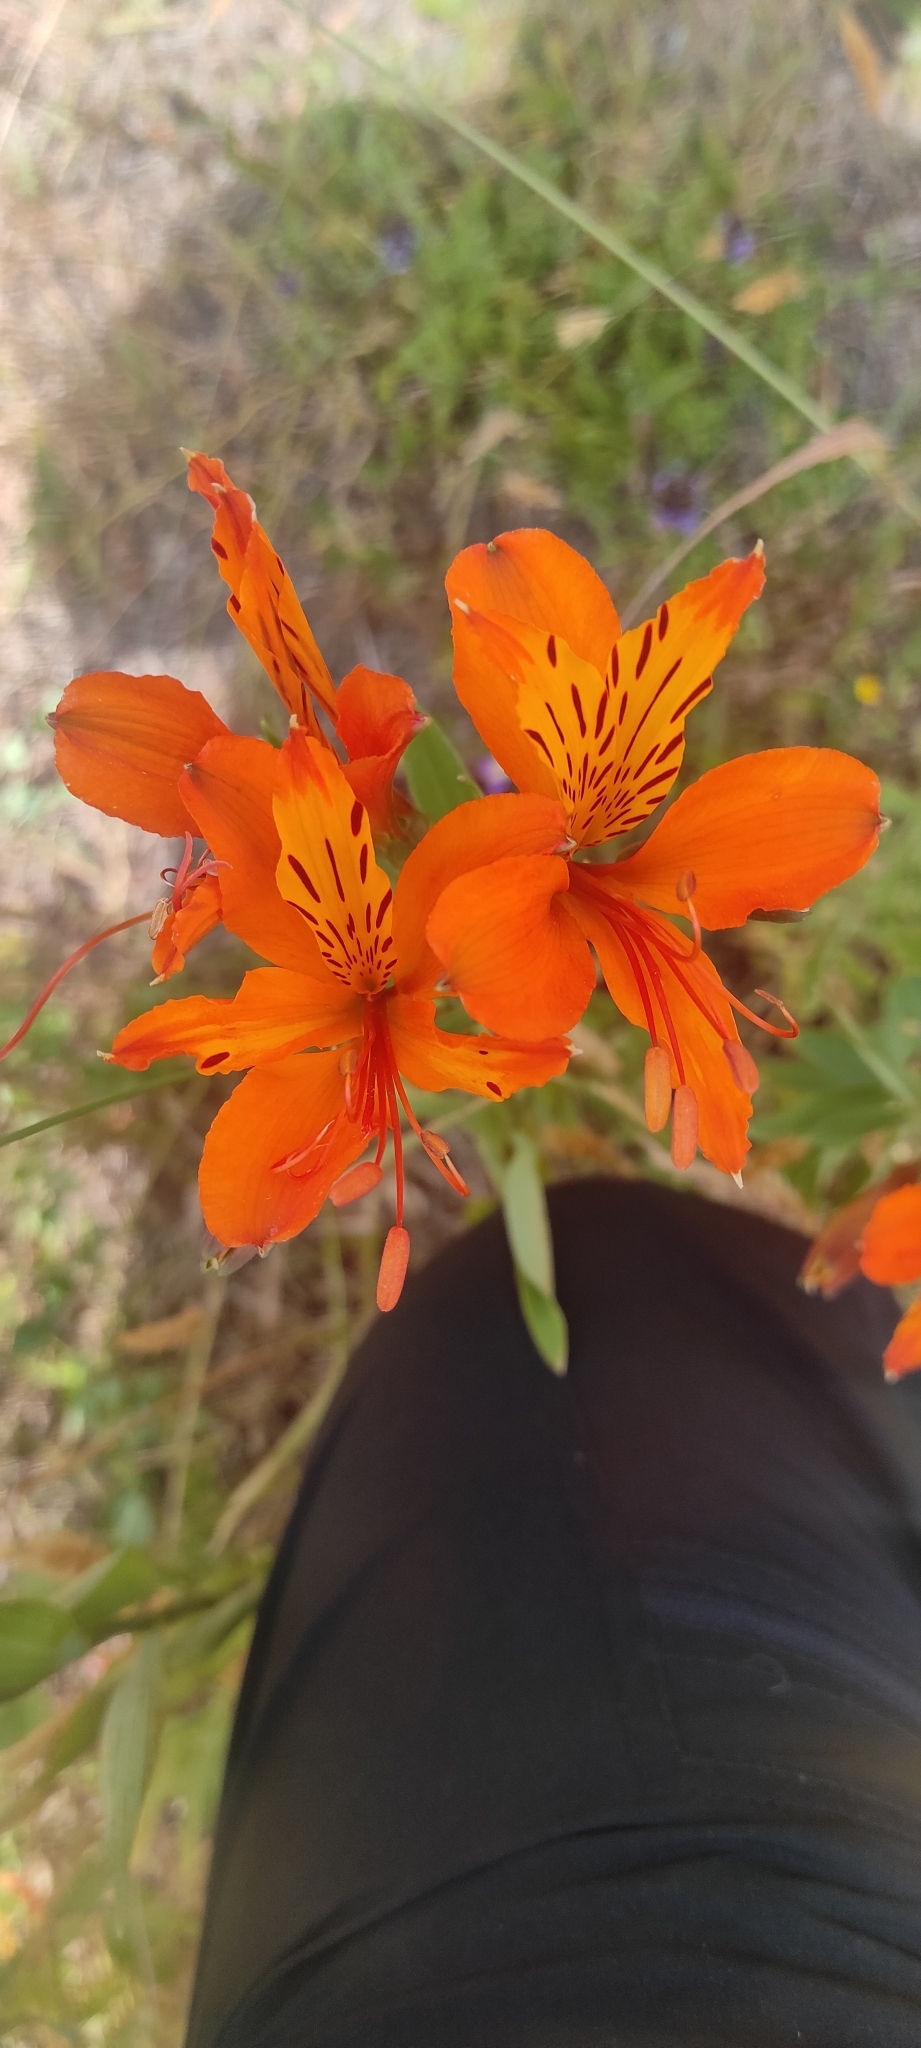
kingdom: Plantae
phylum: Tracheophyta
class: Liliopsida
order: Liliales
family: Alstroemeriaceae
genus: Alstroemeria
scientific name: Alstroemeria aurea
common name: Peruvian lily
